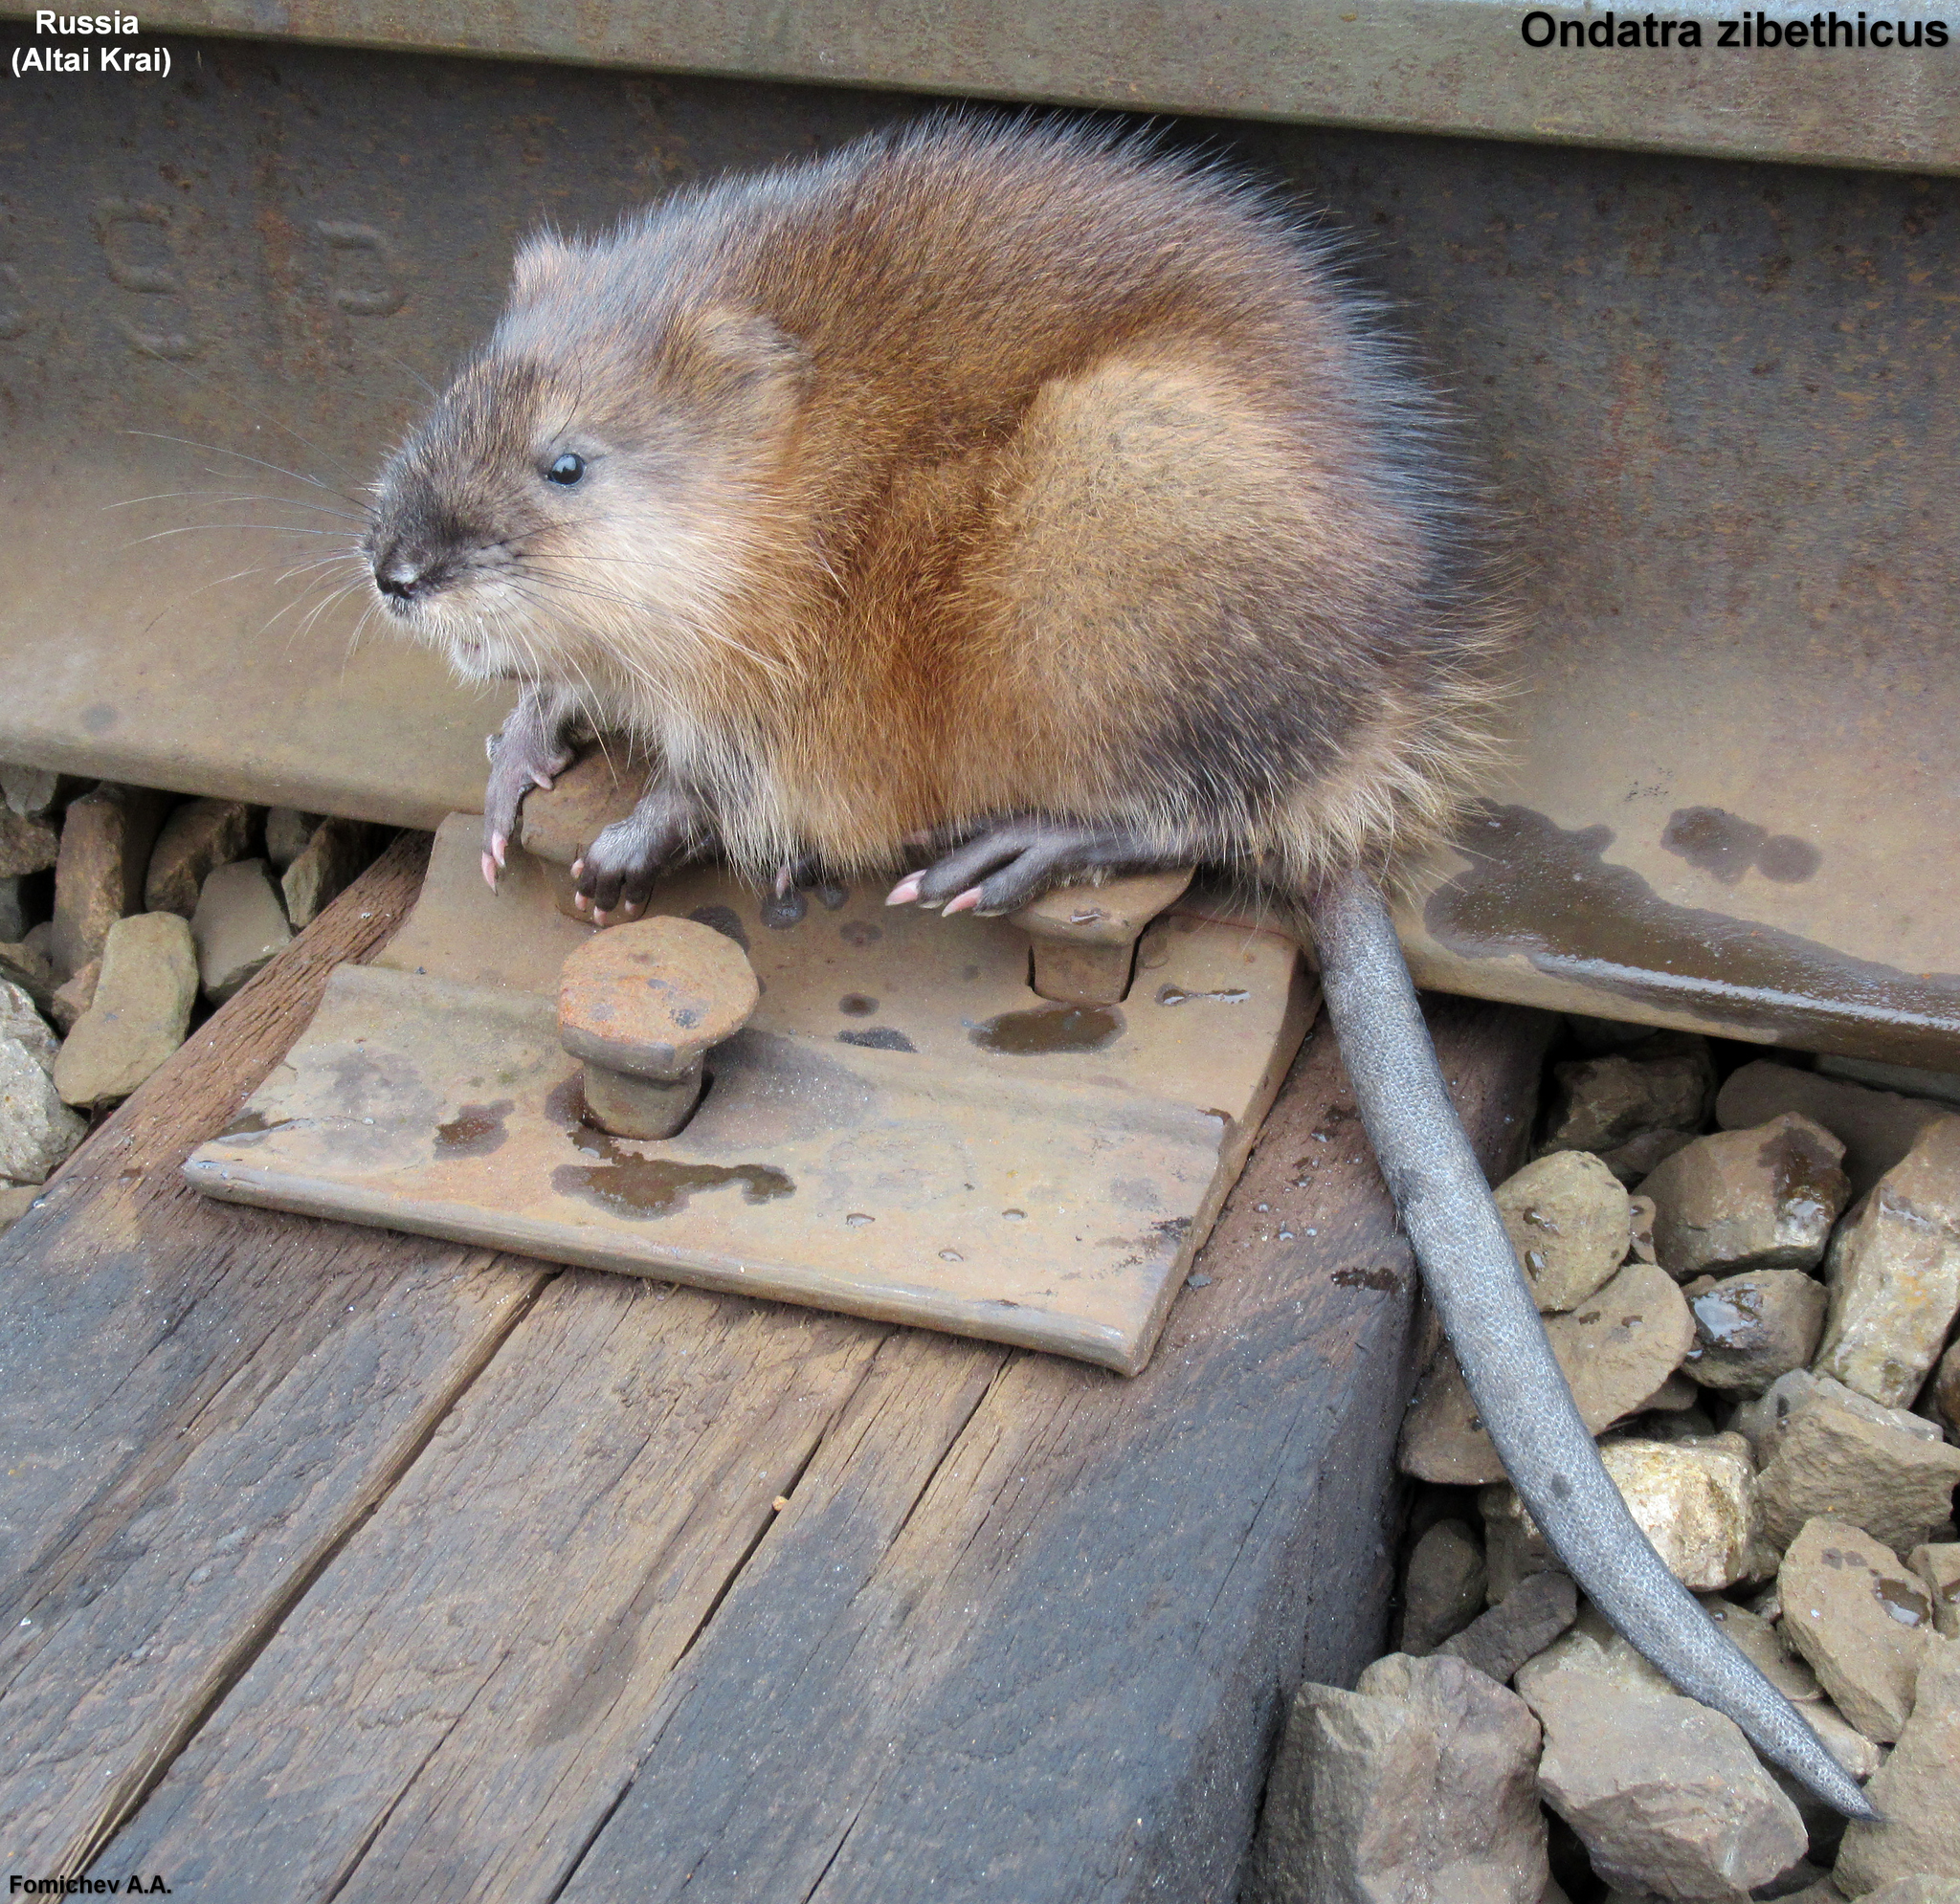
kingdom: Animalia
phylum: Chordata
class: Mammalia
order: Rodentia
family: Cricetidae
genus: Ondatra
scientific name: Ondatra zibethicus
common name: Muskrat
